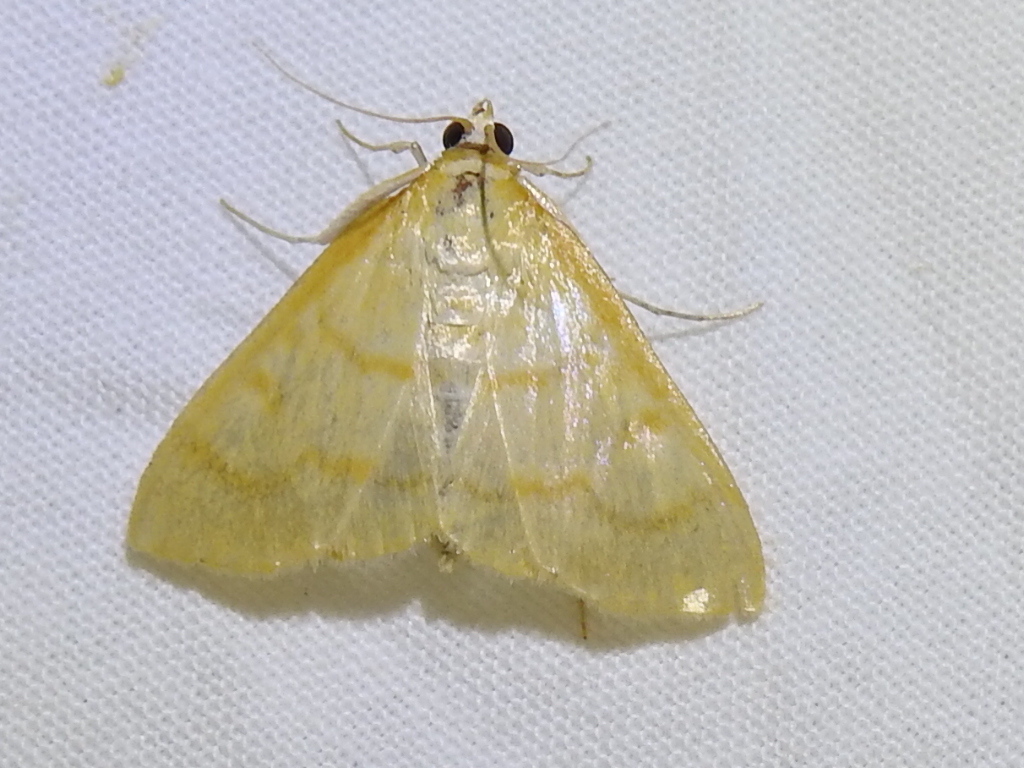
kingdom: Animalia
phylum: Arthropoda
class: Insecta
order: Lepidoptera
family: Crambidae
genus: Helvibotys
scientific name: Helvibotys helvialis
